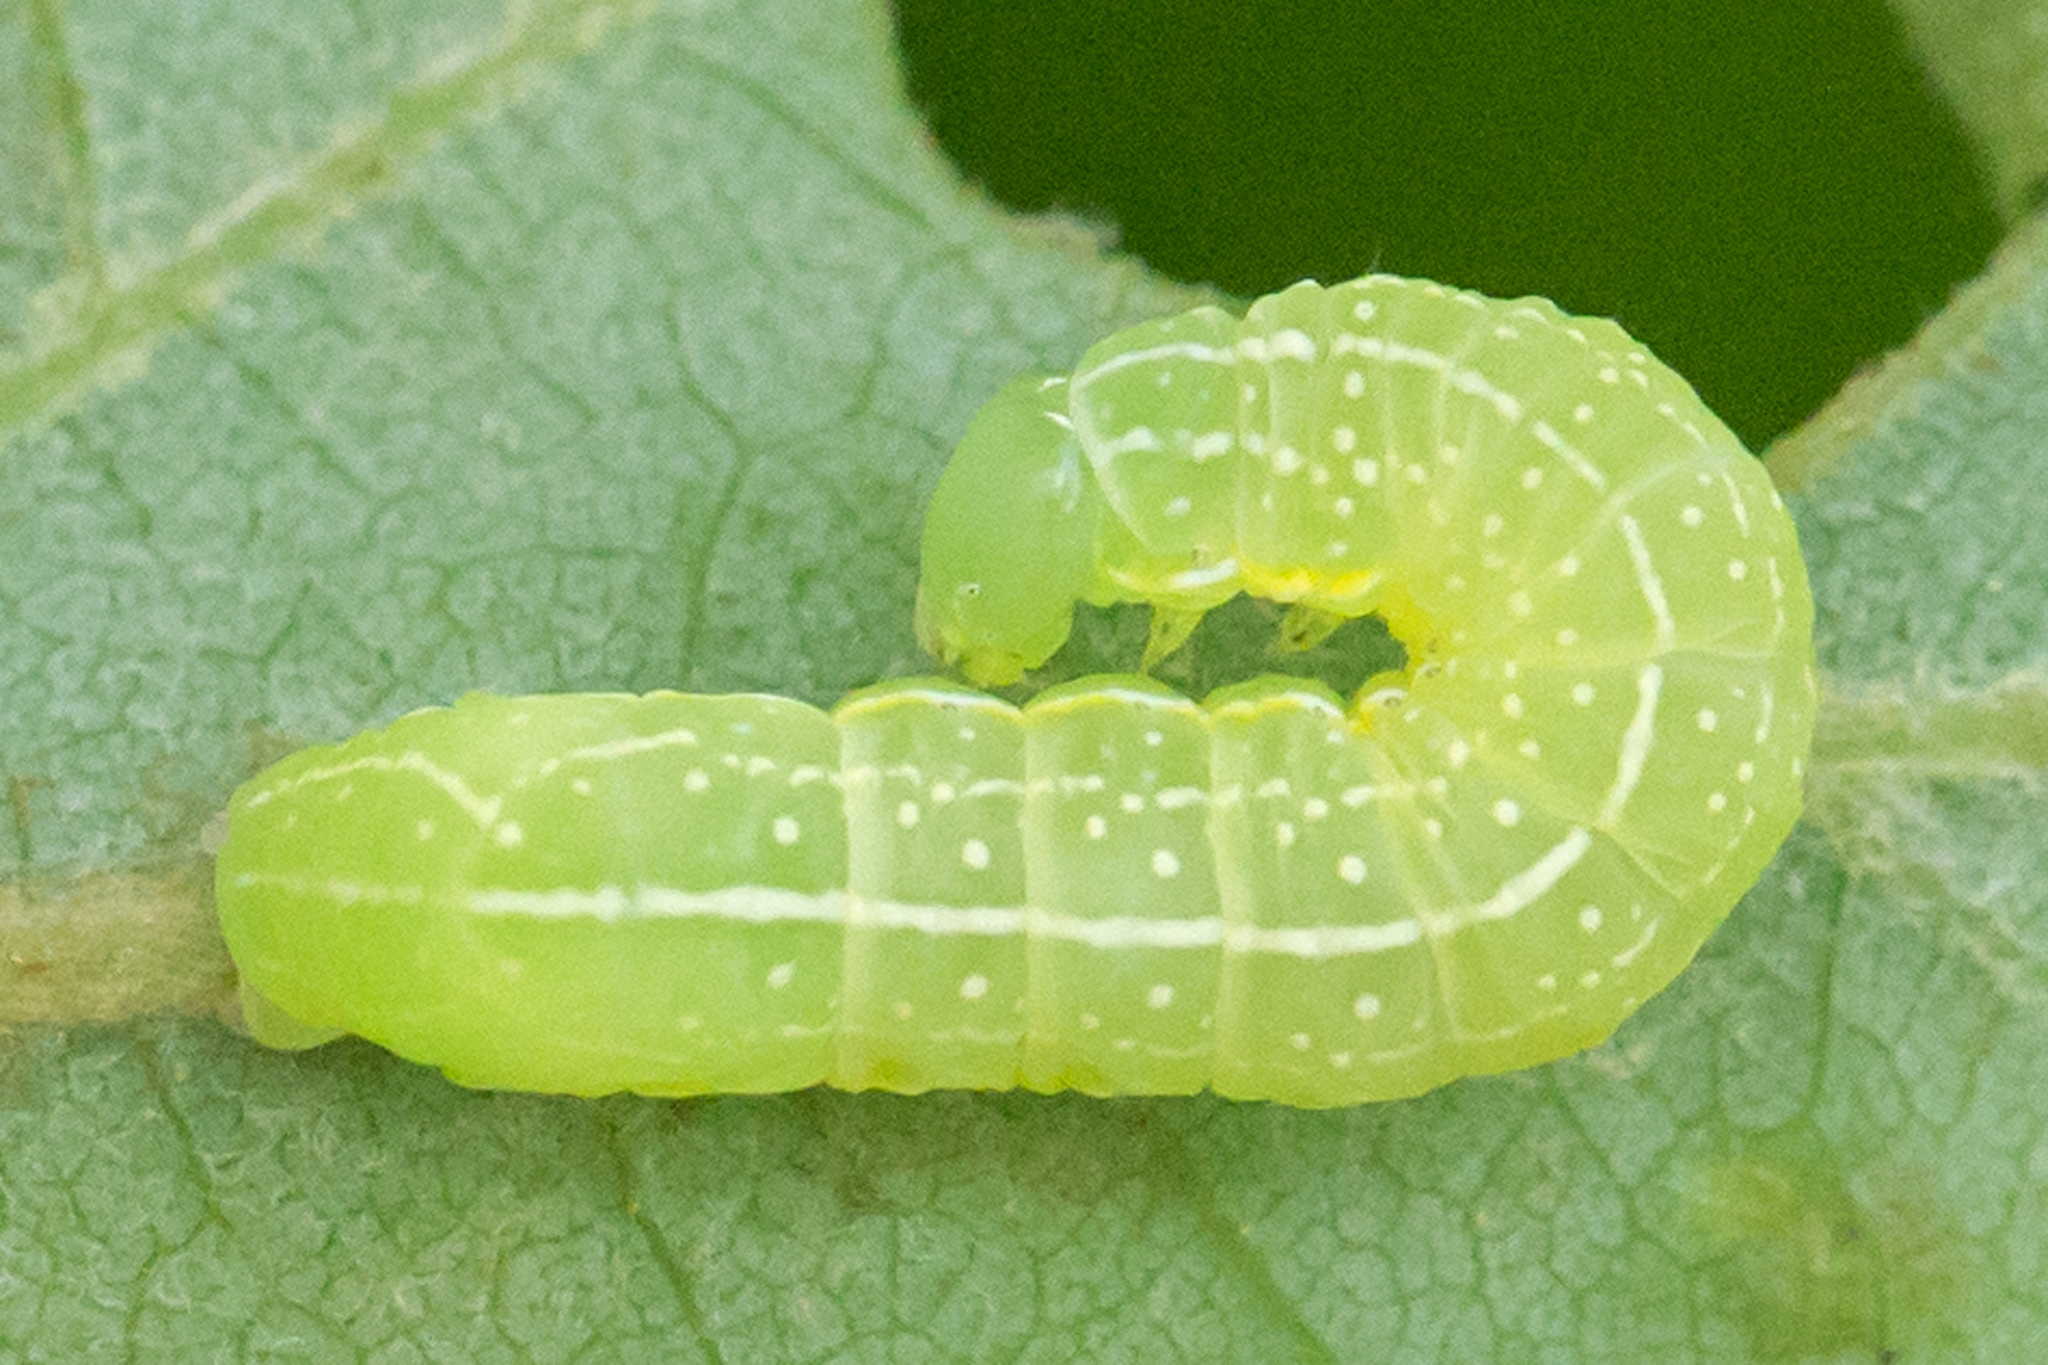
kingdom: Animalia
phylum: Arthropoda
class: Insecta
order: Lepidoptera
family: Noctuidae
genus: Amphipyra
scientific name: Amphipyra pyramidoides
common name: American copper underwing
